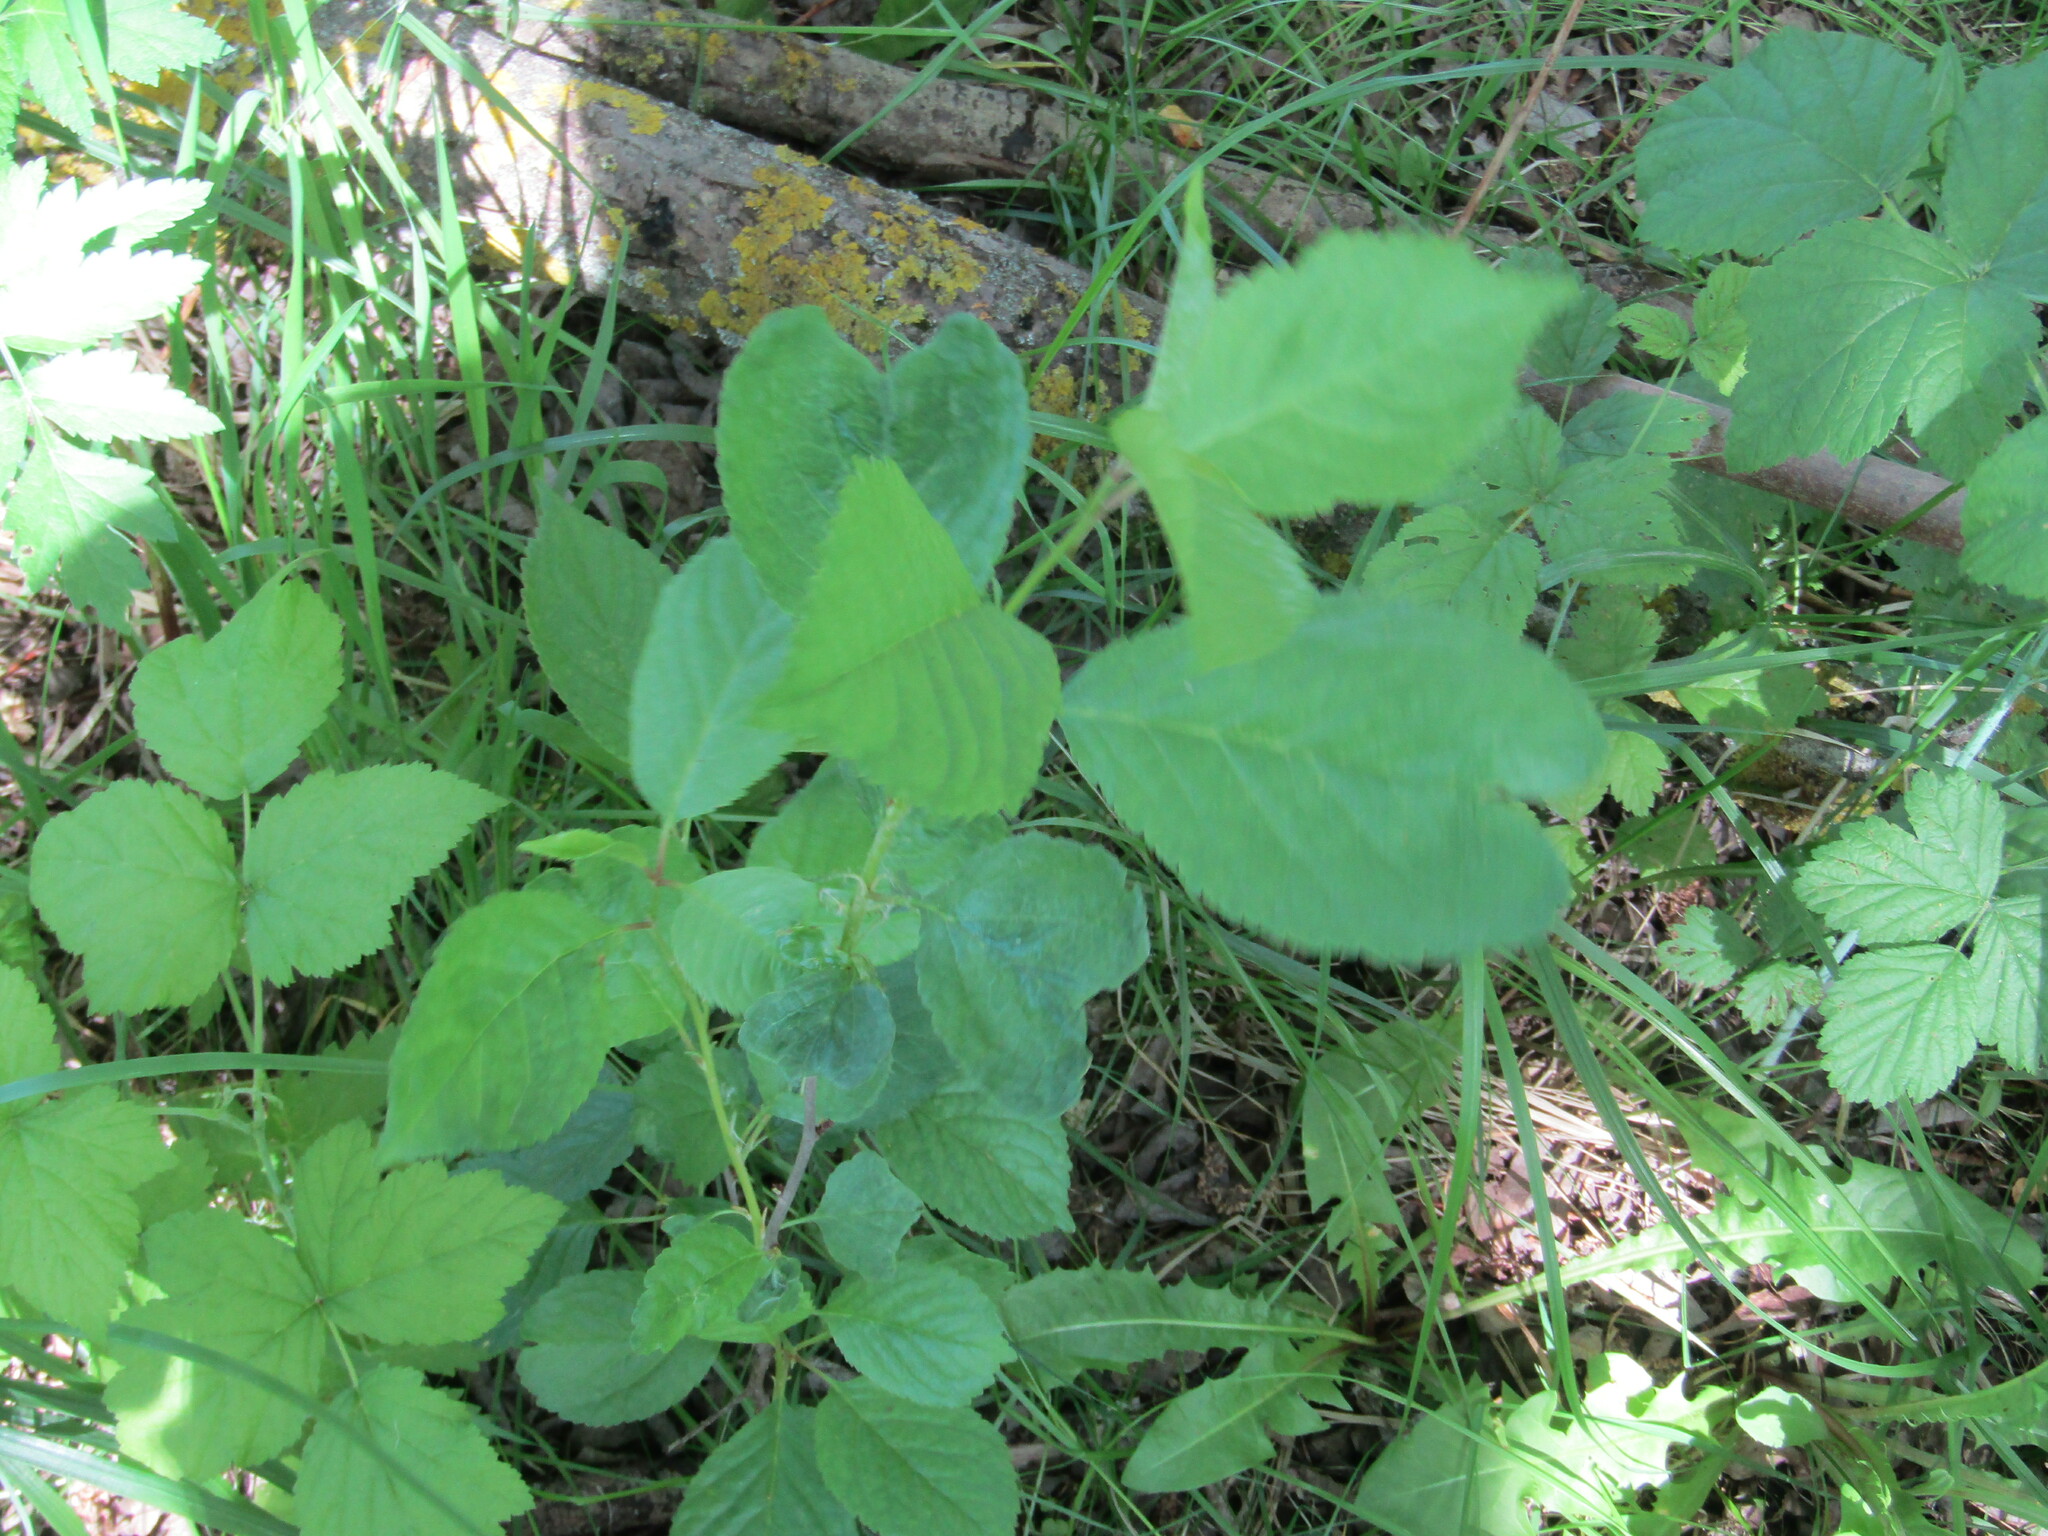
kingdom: Plantae
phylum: Tracheophyta
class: Magnoliopsida
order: Rosales
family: Rosaceae
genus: Prunus
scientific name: Prunus cerasus
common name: Morello cherry
